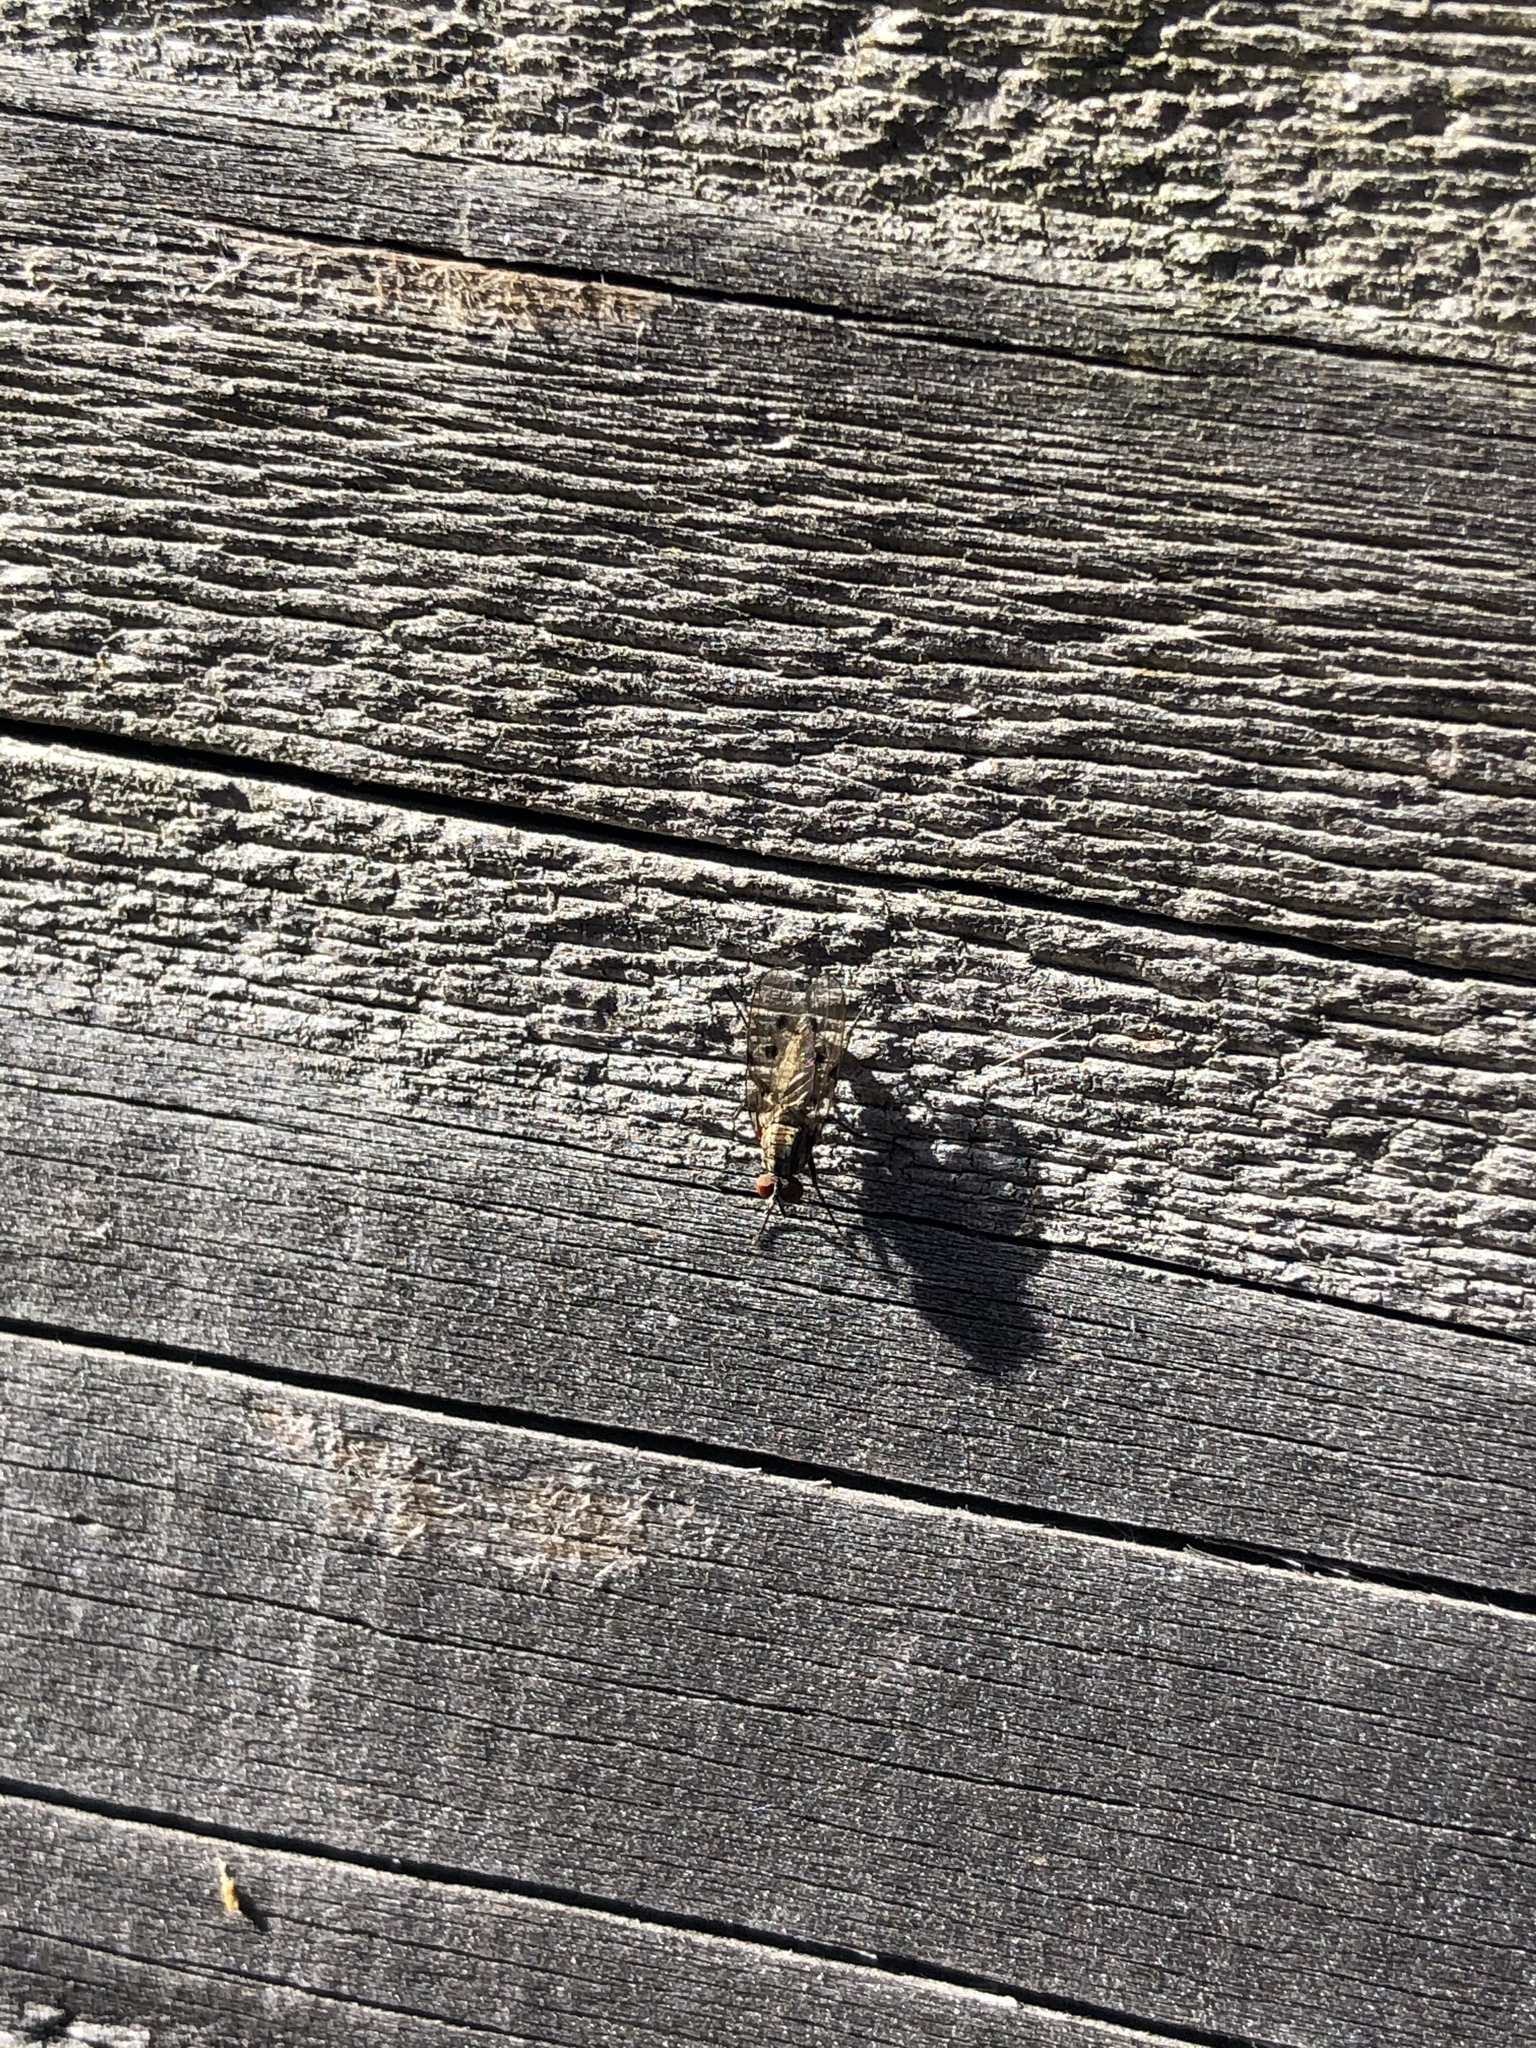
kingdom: Animalia
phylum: Arthropoda
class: Insecta
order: Diptera
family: Anthomyiidae
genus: Anthomyia
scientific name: Anthomyia punctipennis
